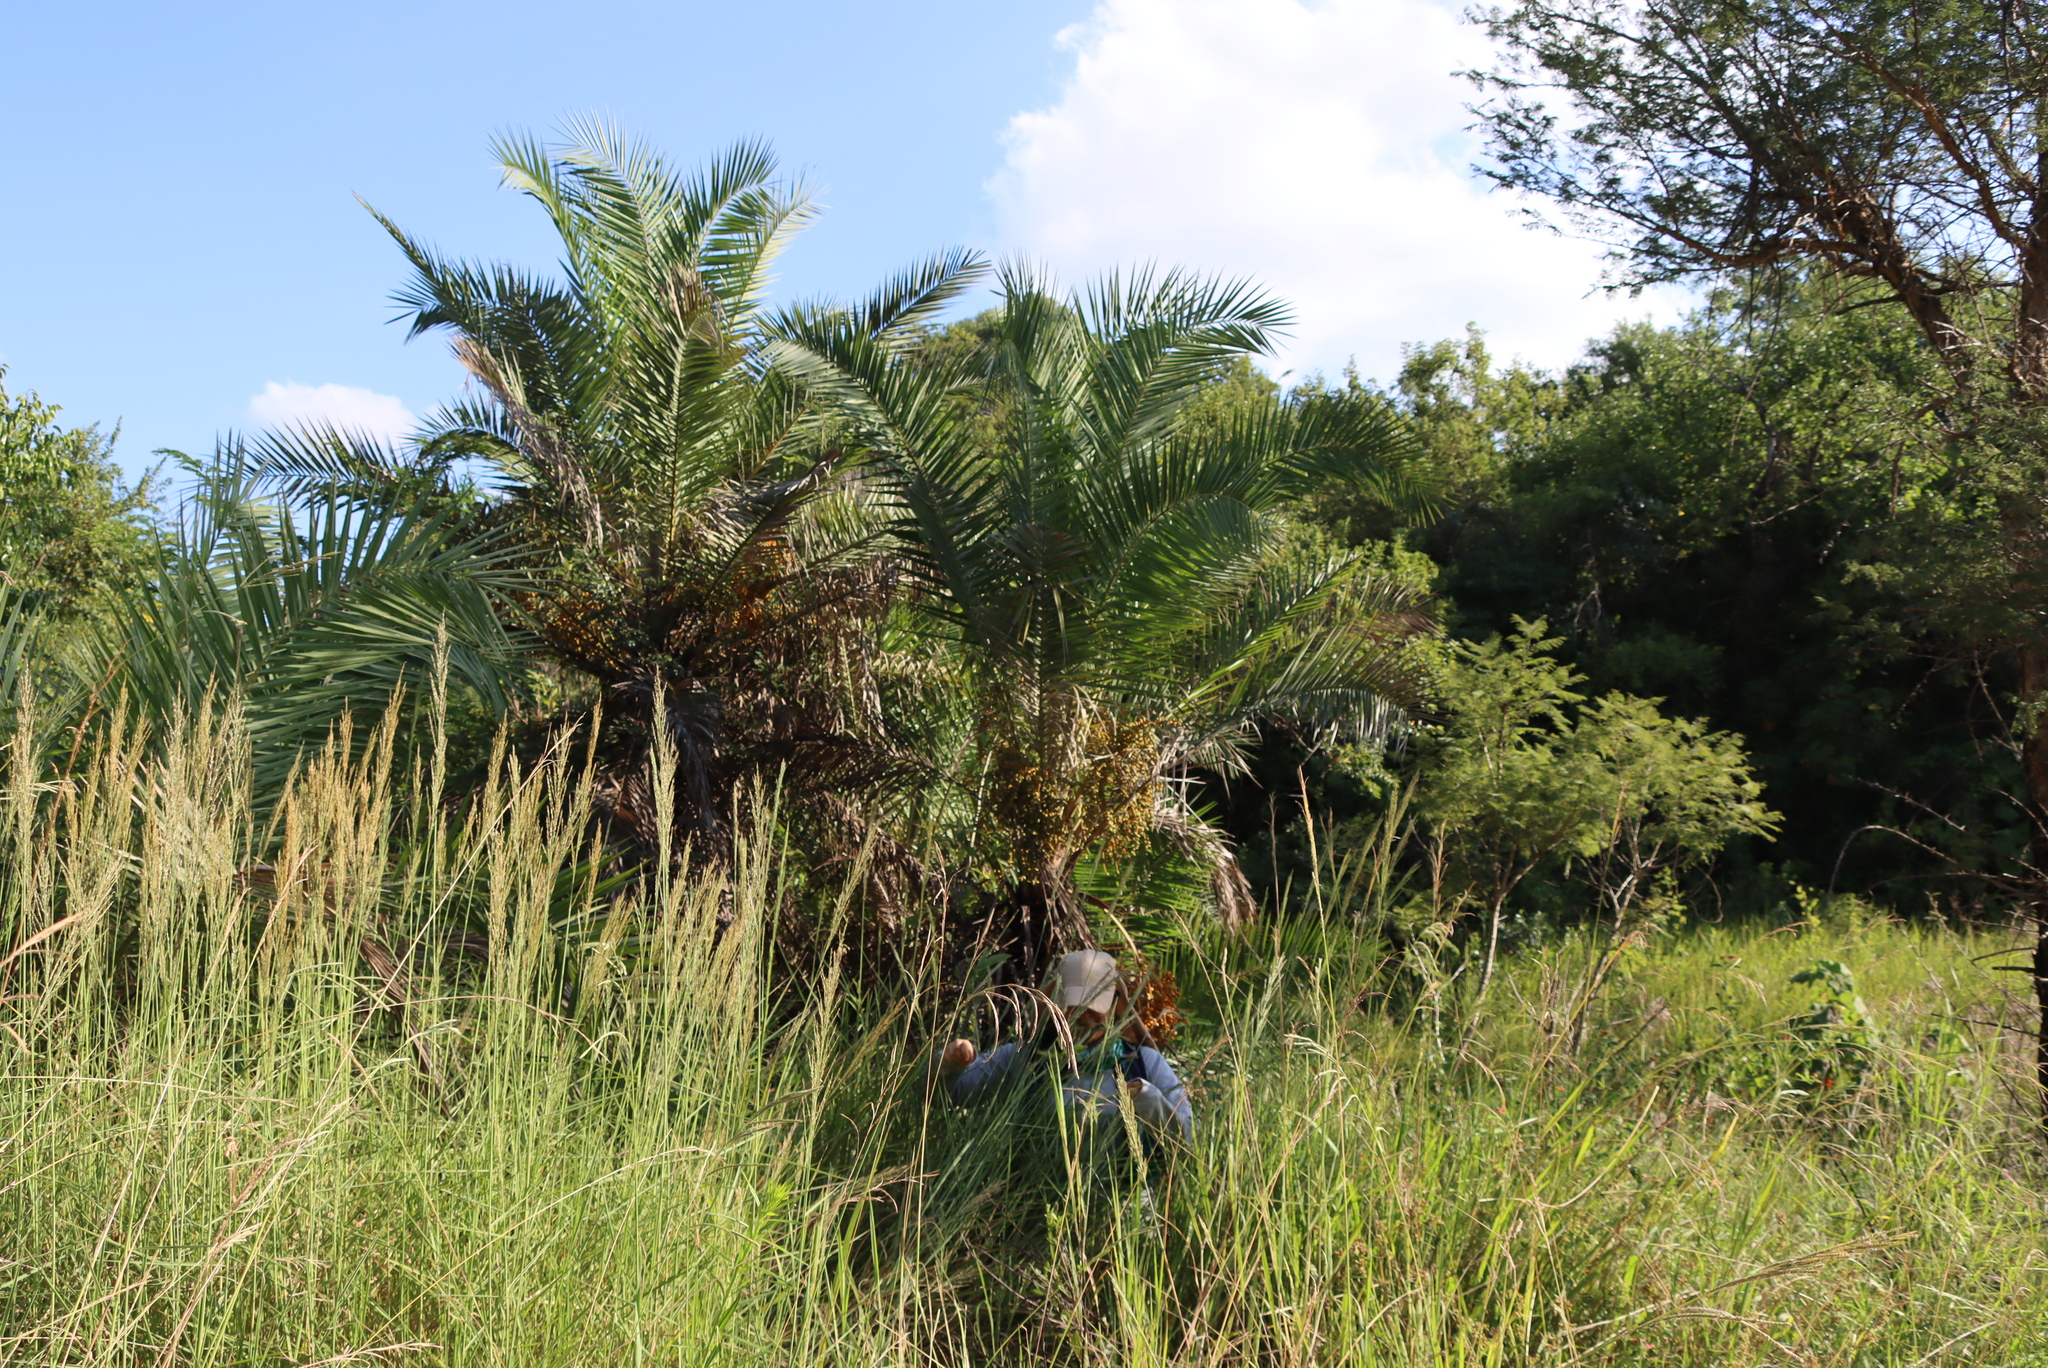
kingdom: Plantae
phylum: Tracheophyta
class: Liliopsida
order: Arecales
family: Arecaceae
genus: Phoenix
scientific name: Phoenix reclinata
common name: Senegal date palm
